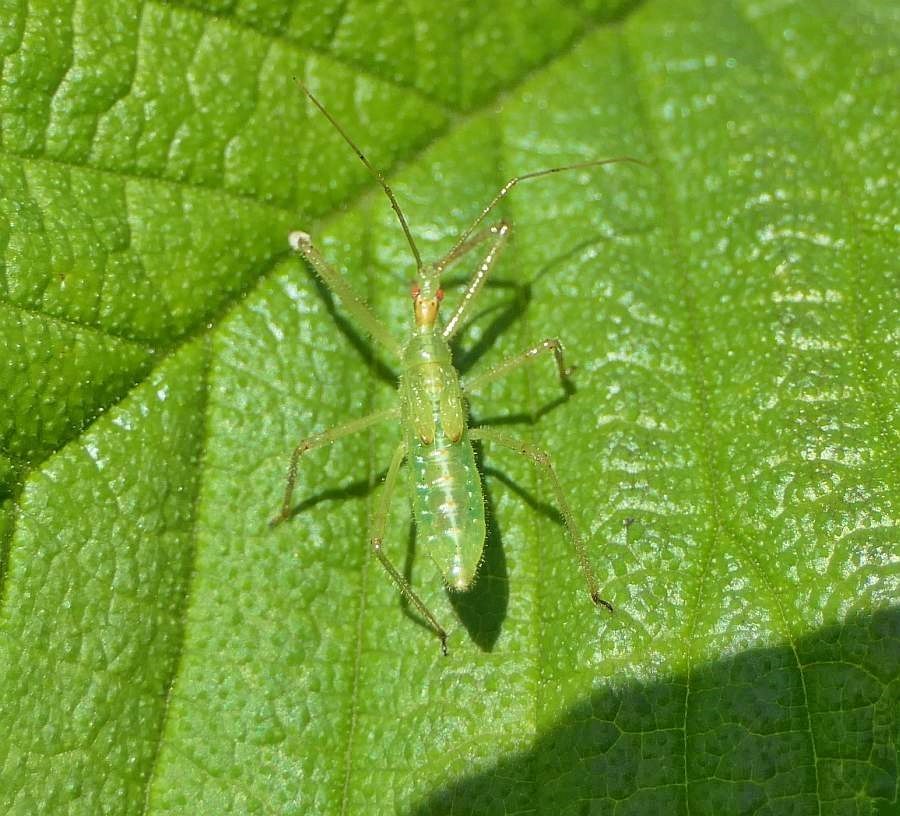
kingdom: Animalia
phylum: Arthropoda
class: Insecta
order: Hemiptera
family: Reduviidae
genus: Zelus
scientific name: Zelus luridus
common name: Pale green assassin bug
